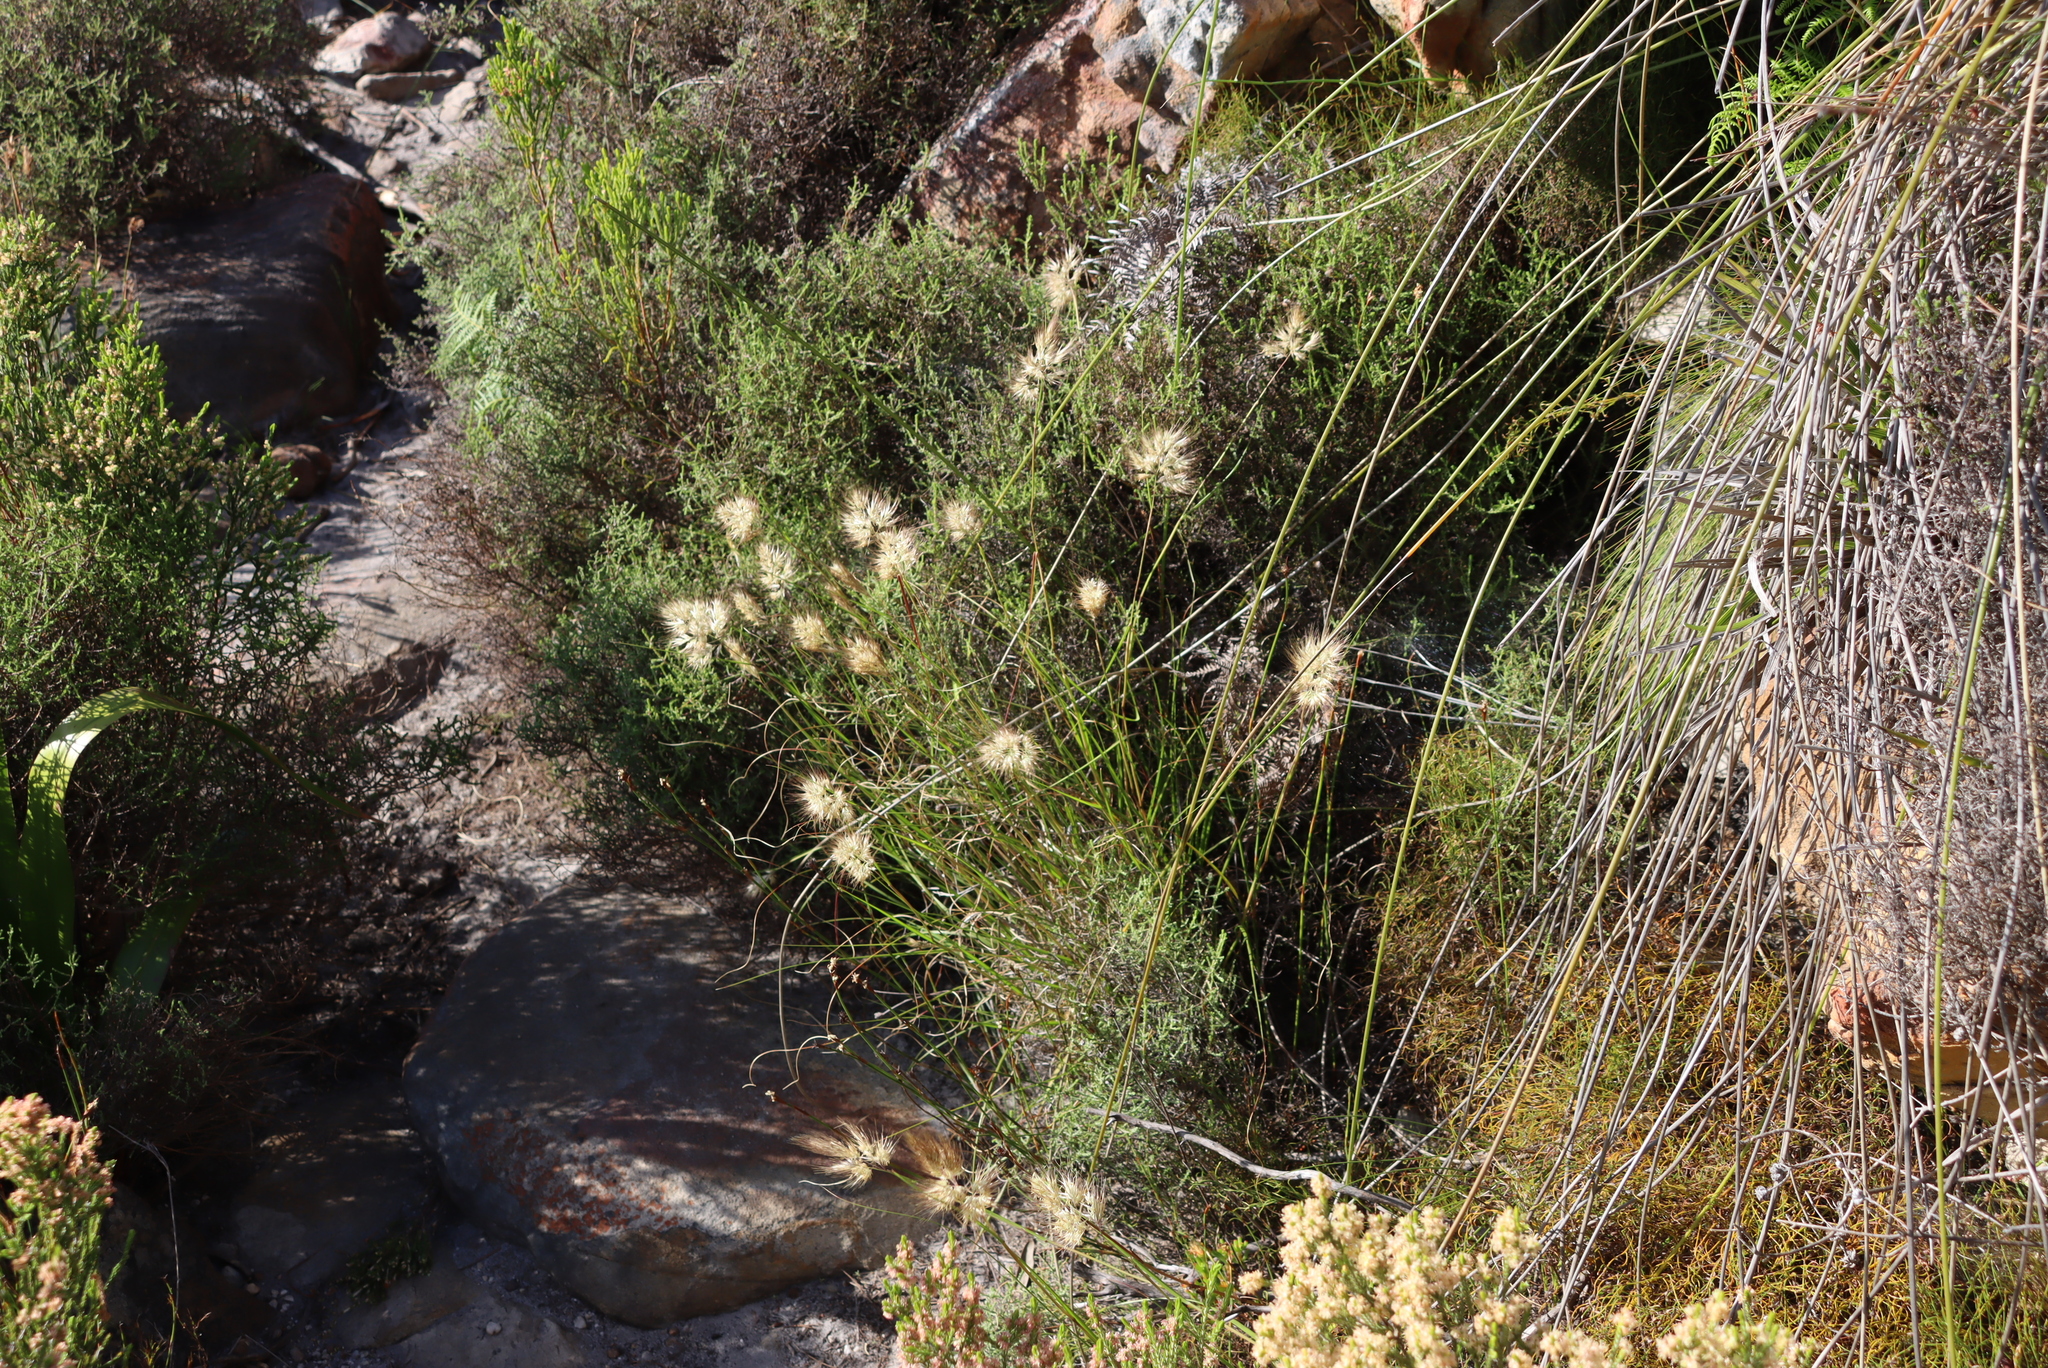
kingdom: Plantae
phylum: Tracheophyta
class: Liliopsida
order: Poales
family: Poaceae
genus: Pentameris
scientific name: Pentameris curvifolia
